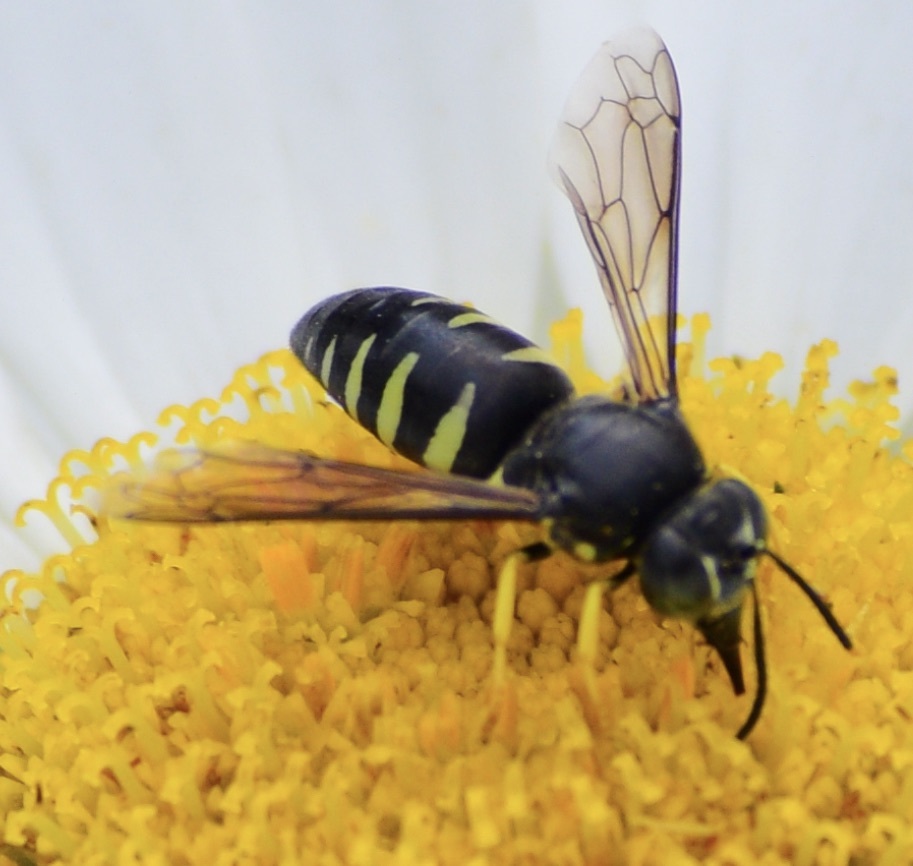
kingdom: Animalia
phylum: Arthropoda
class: Insecta
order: Hymenoptera
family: Crabronidae
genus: Bicyrtes
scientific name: Bicyrtes quadrifasciatus
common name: Four-banded stink bug hunter wasp
